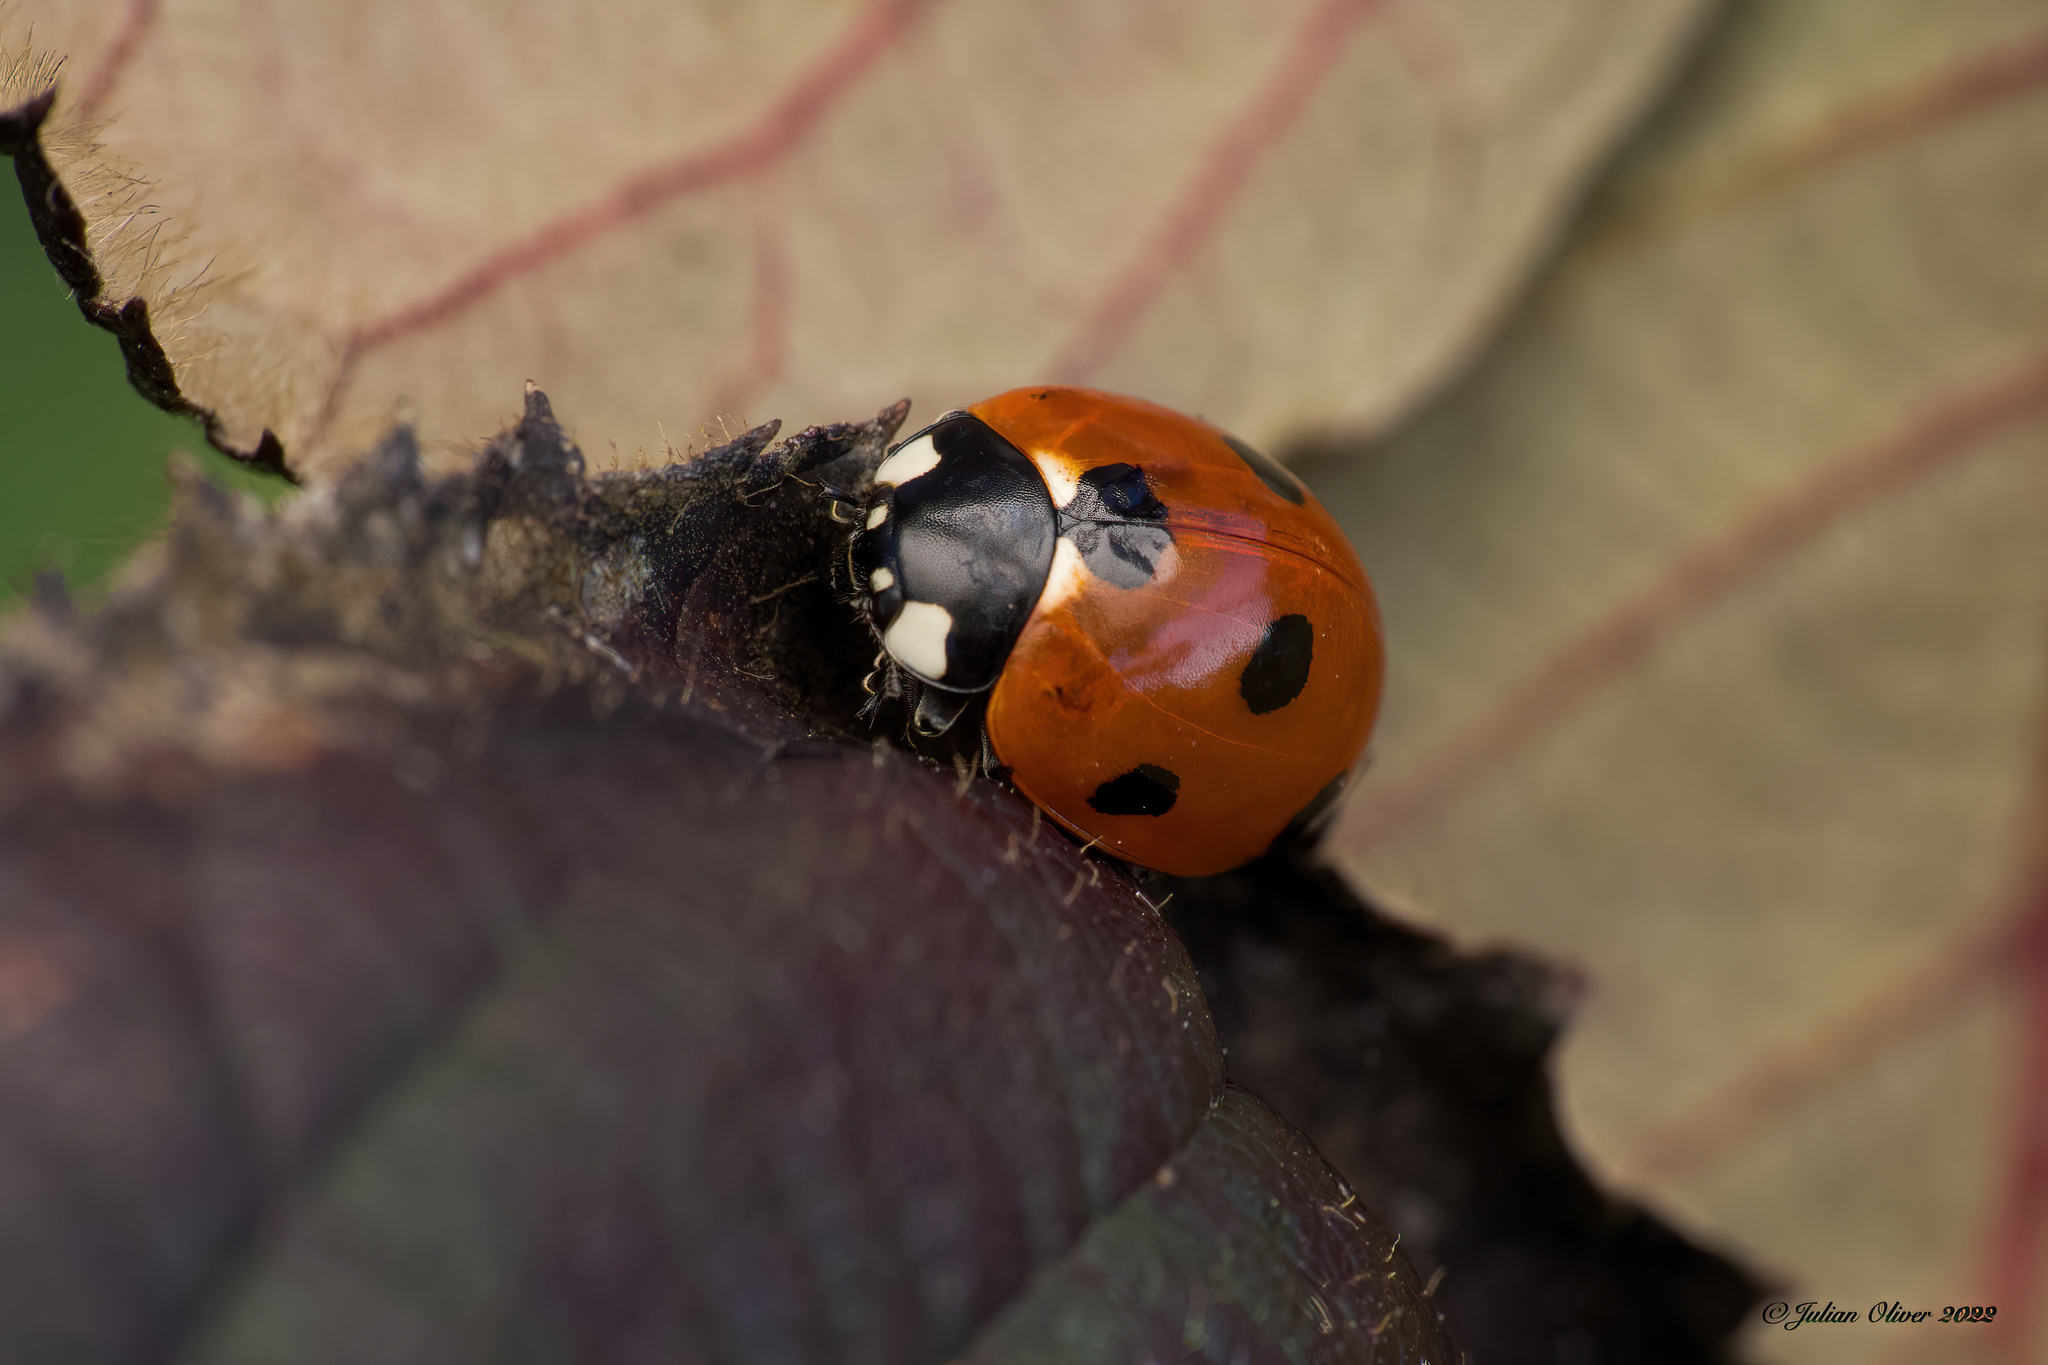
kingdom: Animalia
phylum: Arthropoda
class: Insecta
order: Coleoptera
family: Coccinellidae
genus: Coccinella
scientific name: Coccinella septempunctata
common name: Sevenspotted lady beetle
